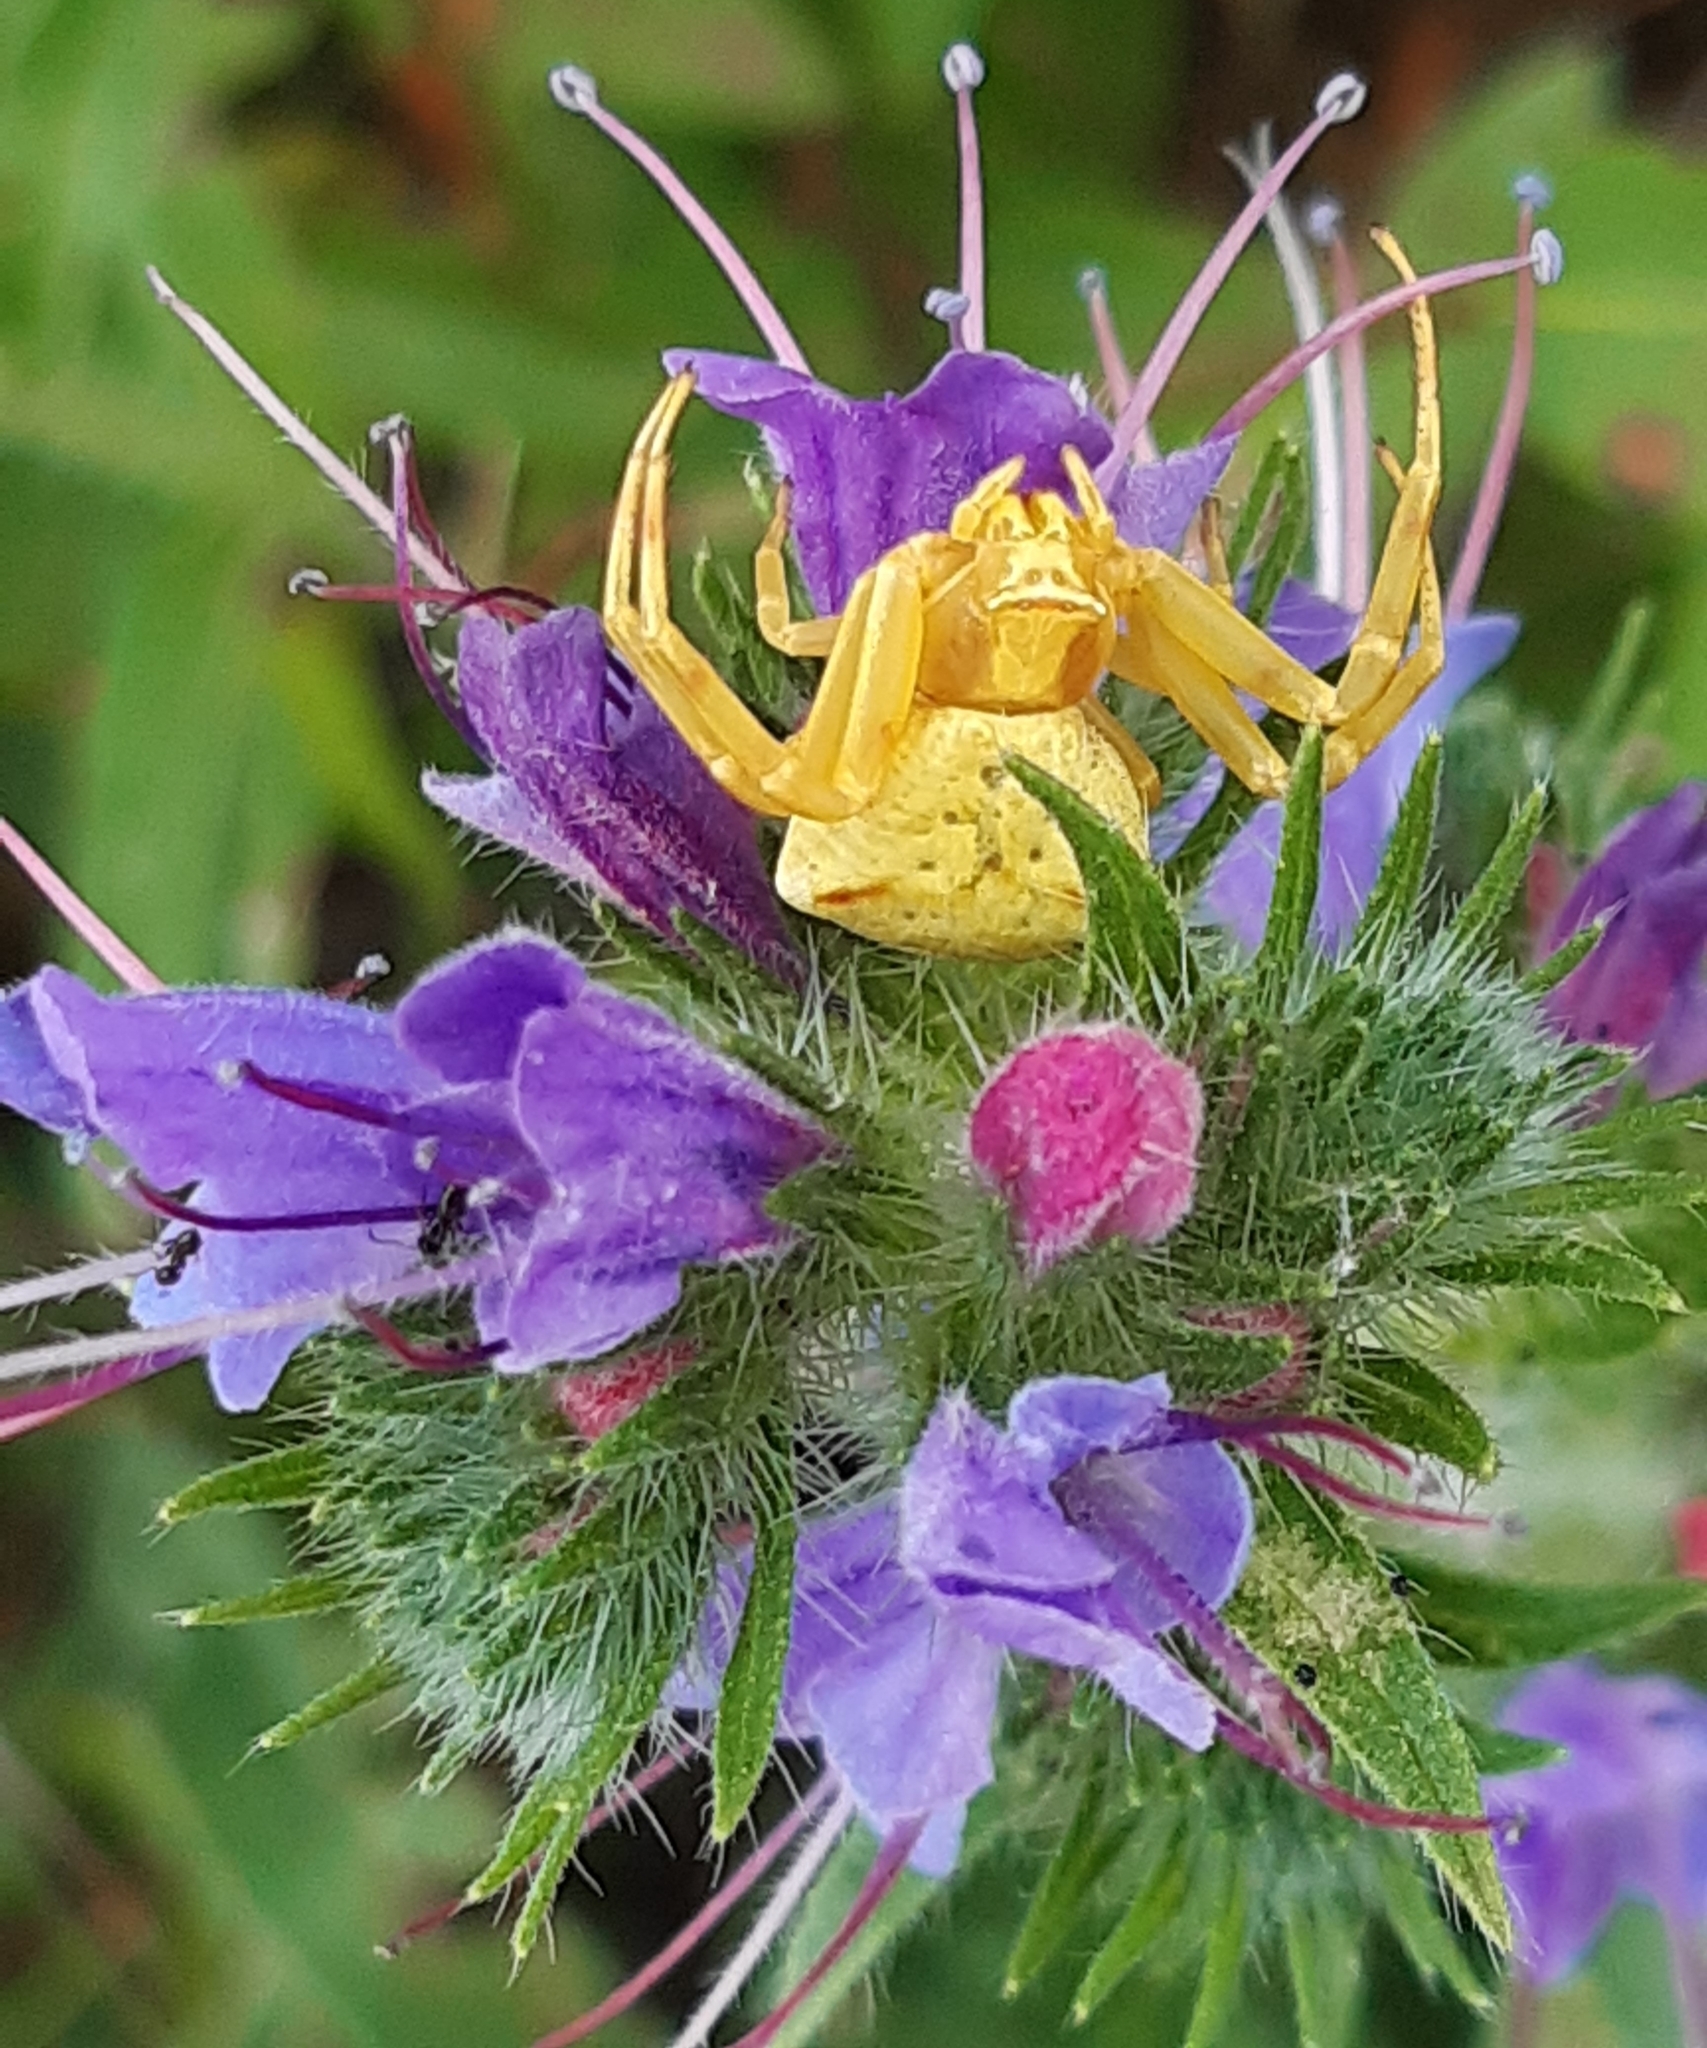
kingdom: Animalia
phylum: Arthropoda
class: Arachnida
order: Araneae
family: Thomisidae
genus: Thomisus
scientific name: Thomisus onustus
